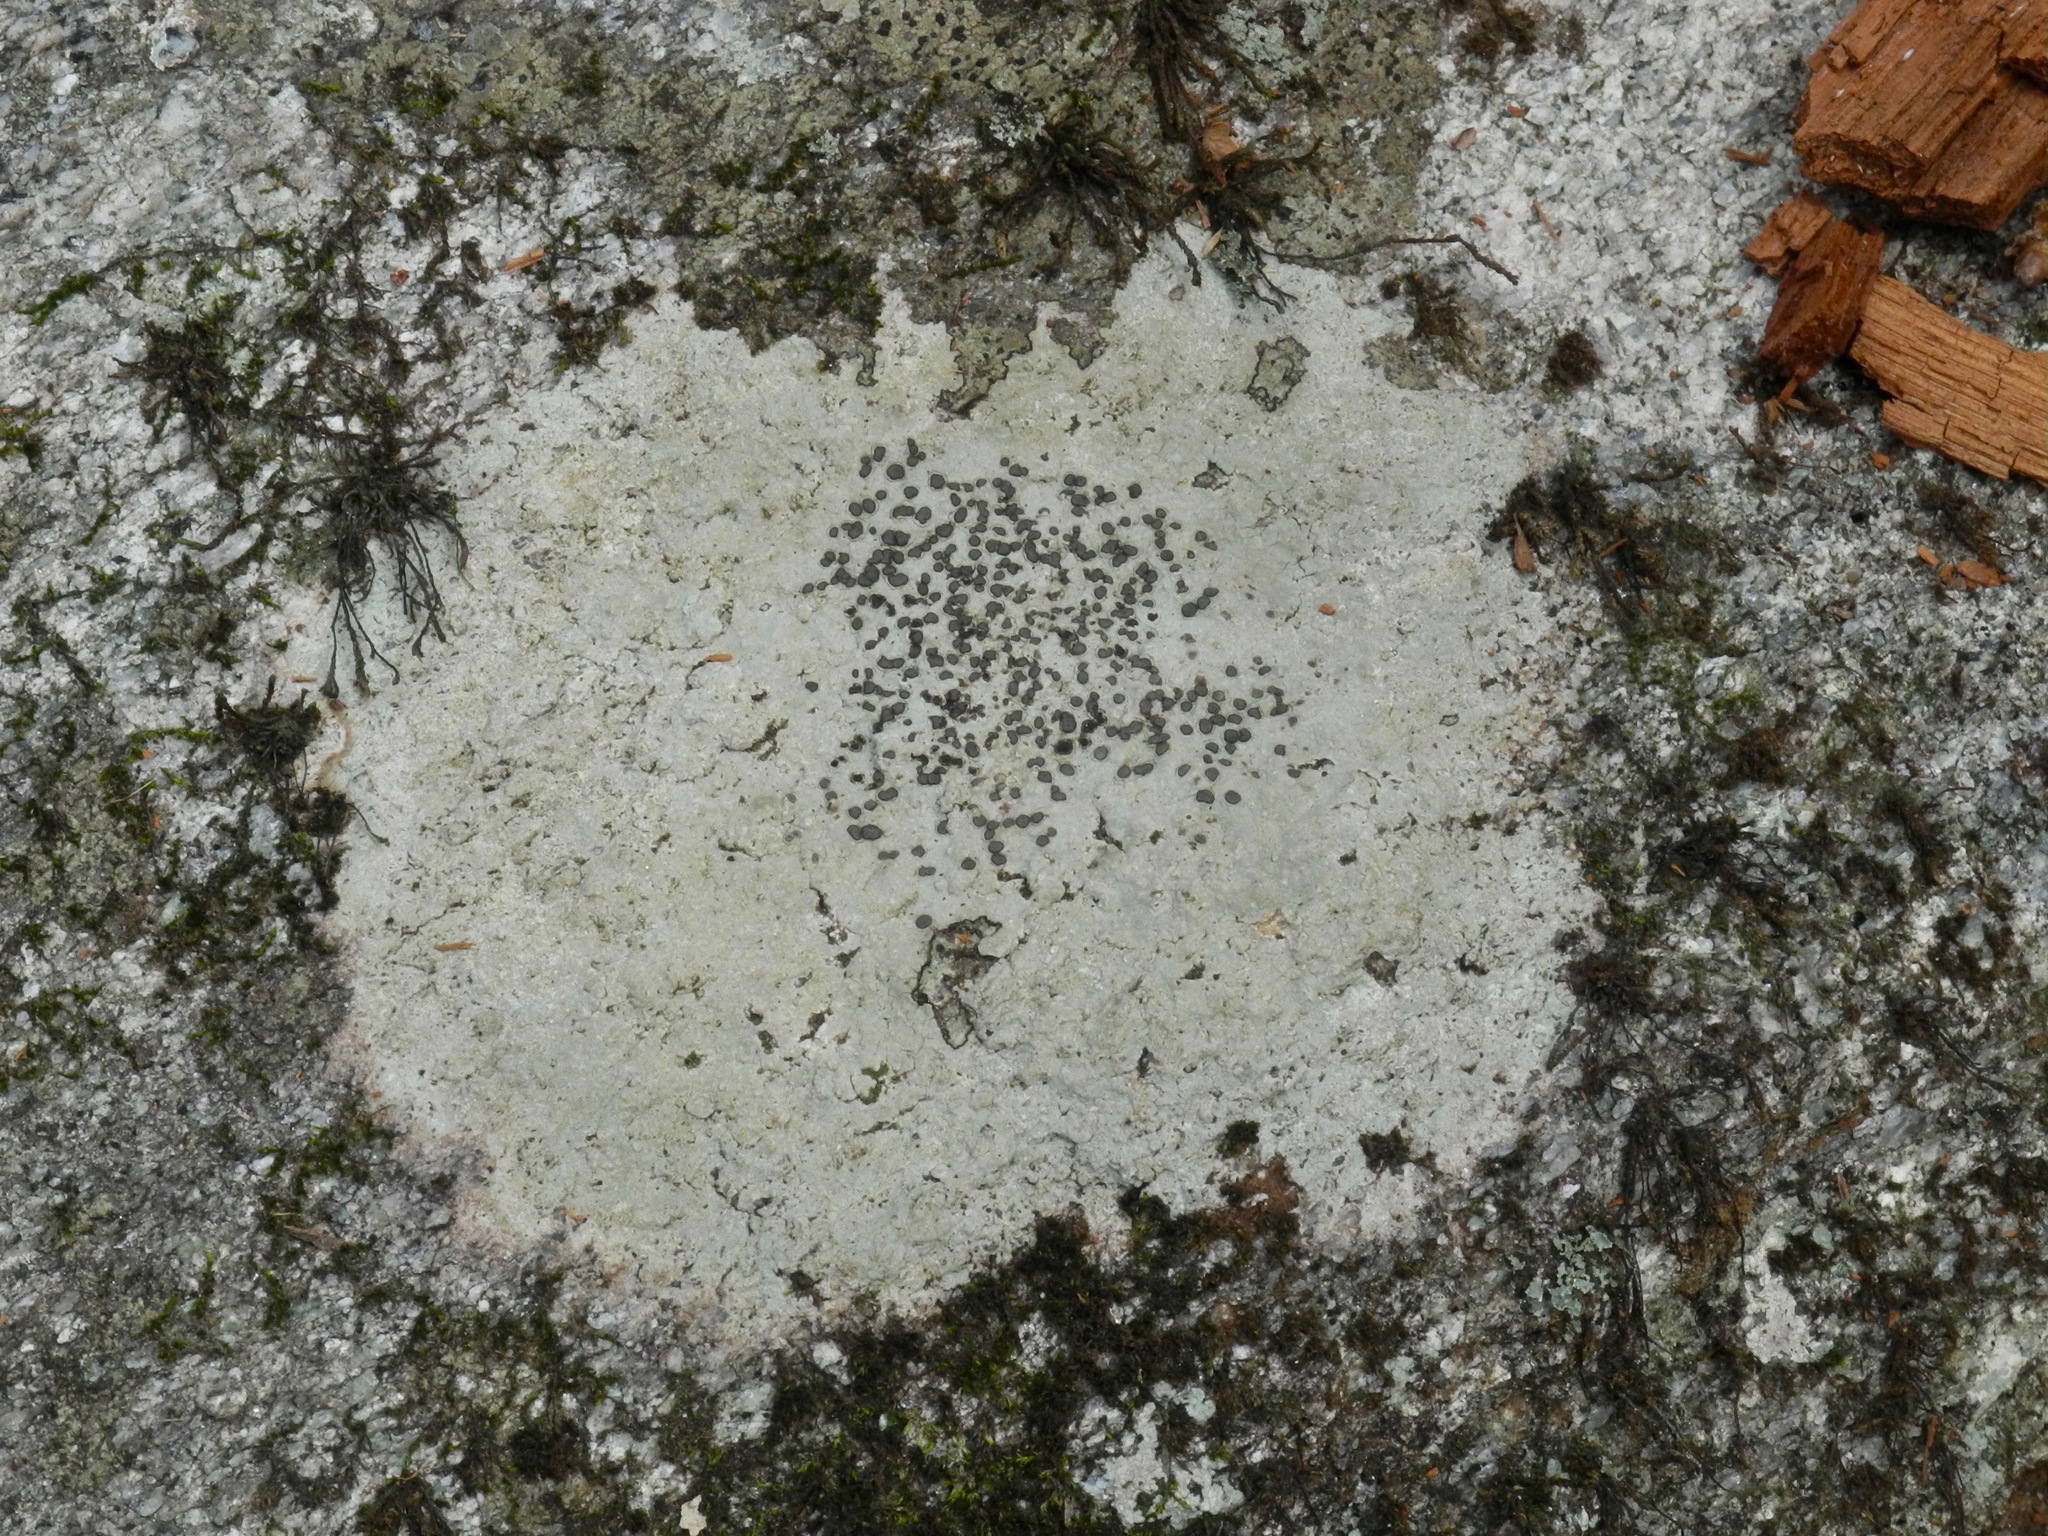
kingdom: Fungi
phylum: Ascomycota
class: Lecanoromycetes
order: Lecideales
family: Lecideaceae
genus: Porpidia
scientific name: Porpidia albocaerulescens
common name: Smokey-eyed boulder lichen
